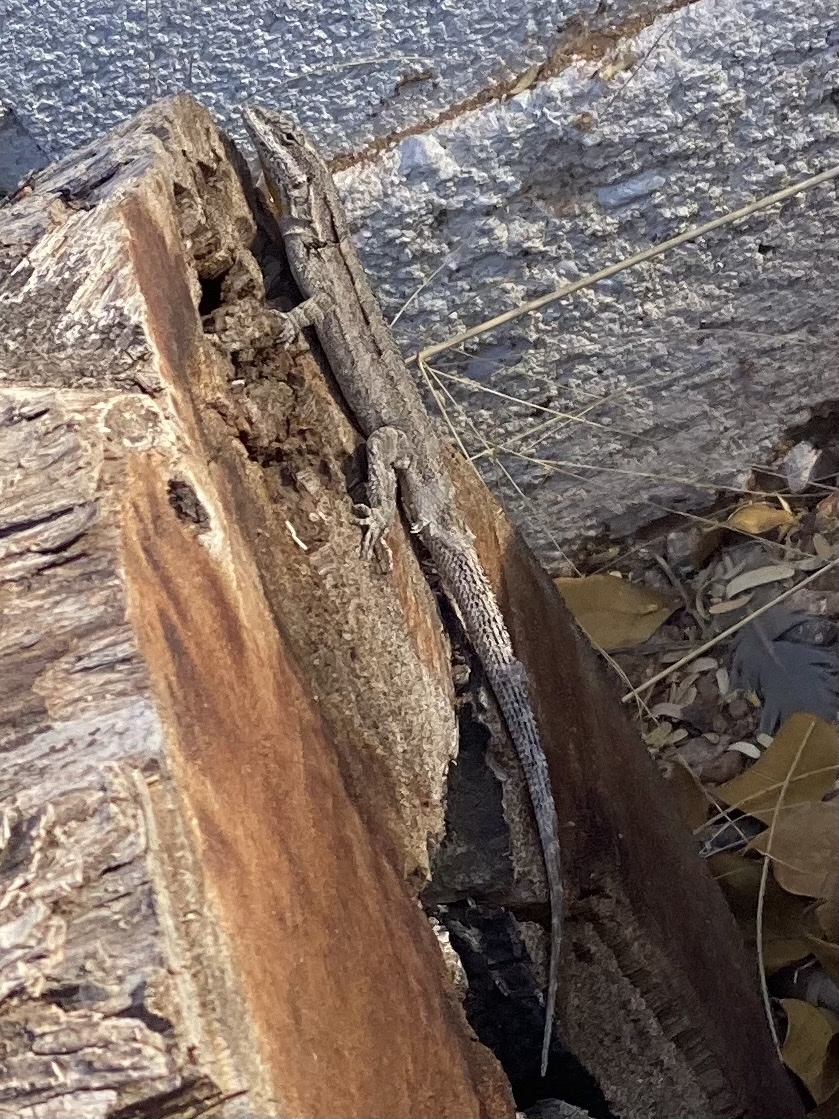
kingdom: Animalia
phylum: Chordata
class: Squamata
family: Phrynosomatidae
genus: Urosaurus
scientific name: Urosaurus ornatus
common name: Ornate tree lizard
